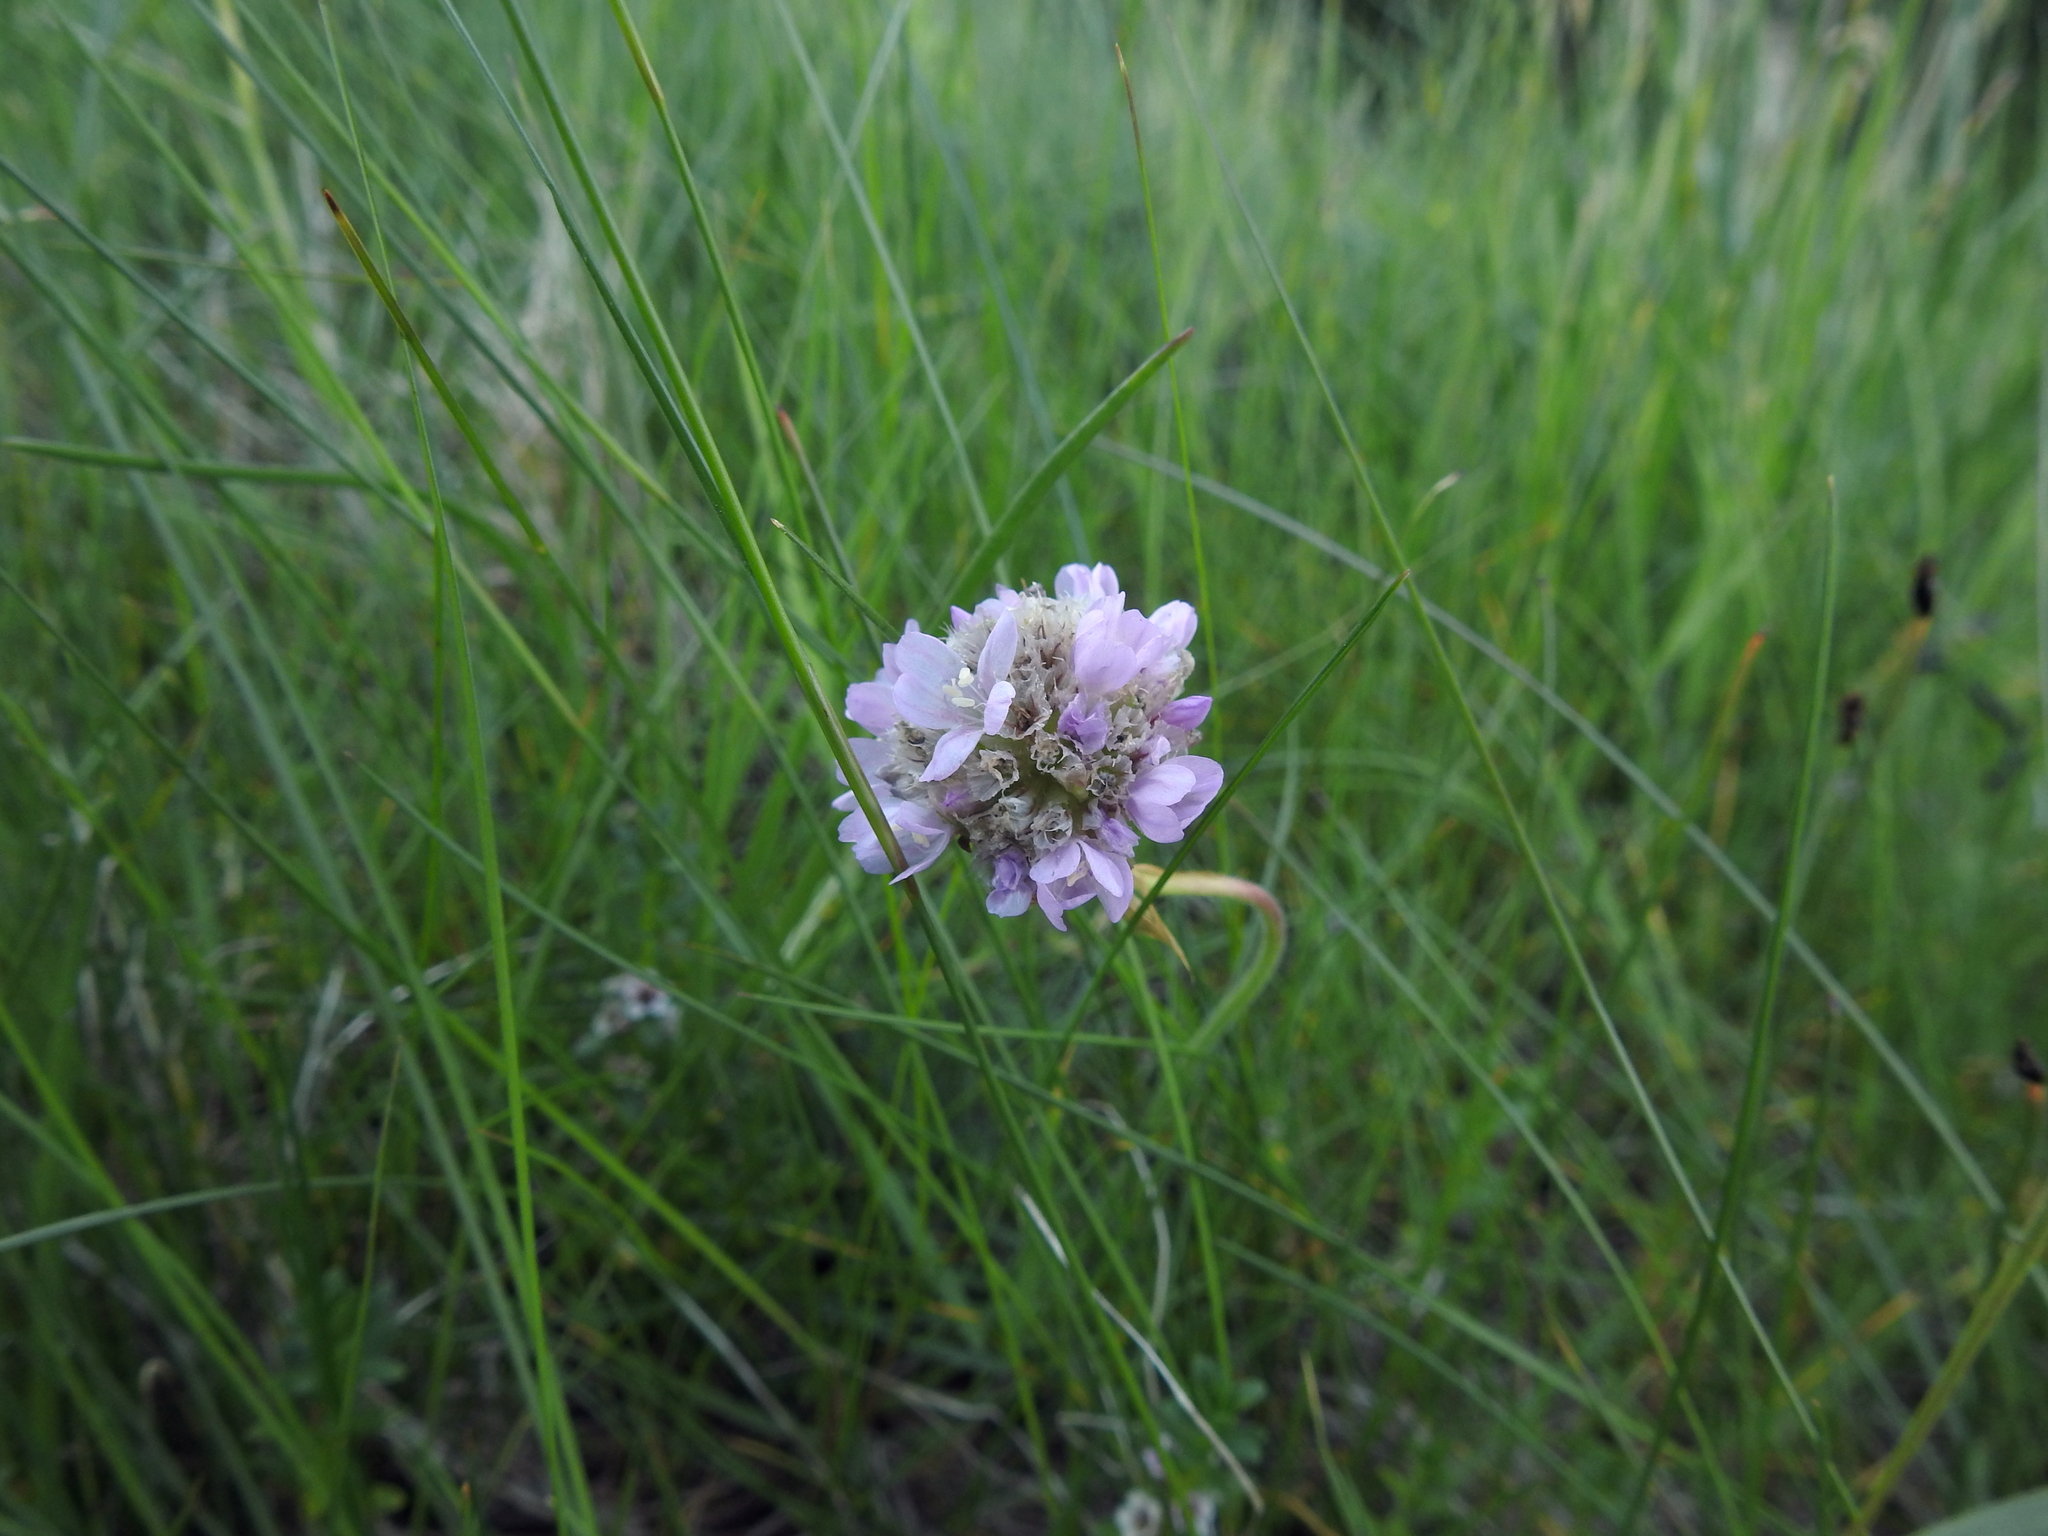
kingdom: Plantae
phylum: Tracheophyta
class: Magnoliopsida
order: Caryophyllales
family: Plumbaginaceae
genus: Armeria
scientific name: Armeria maritima
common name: Thrift
